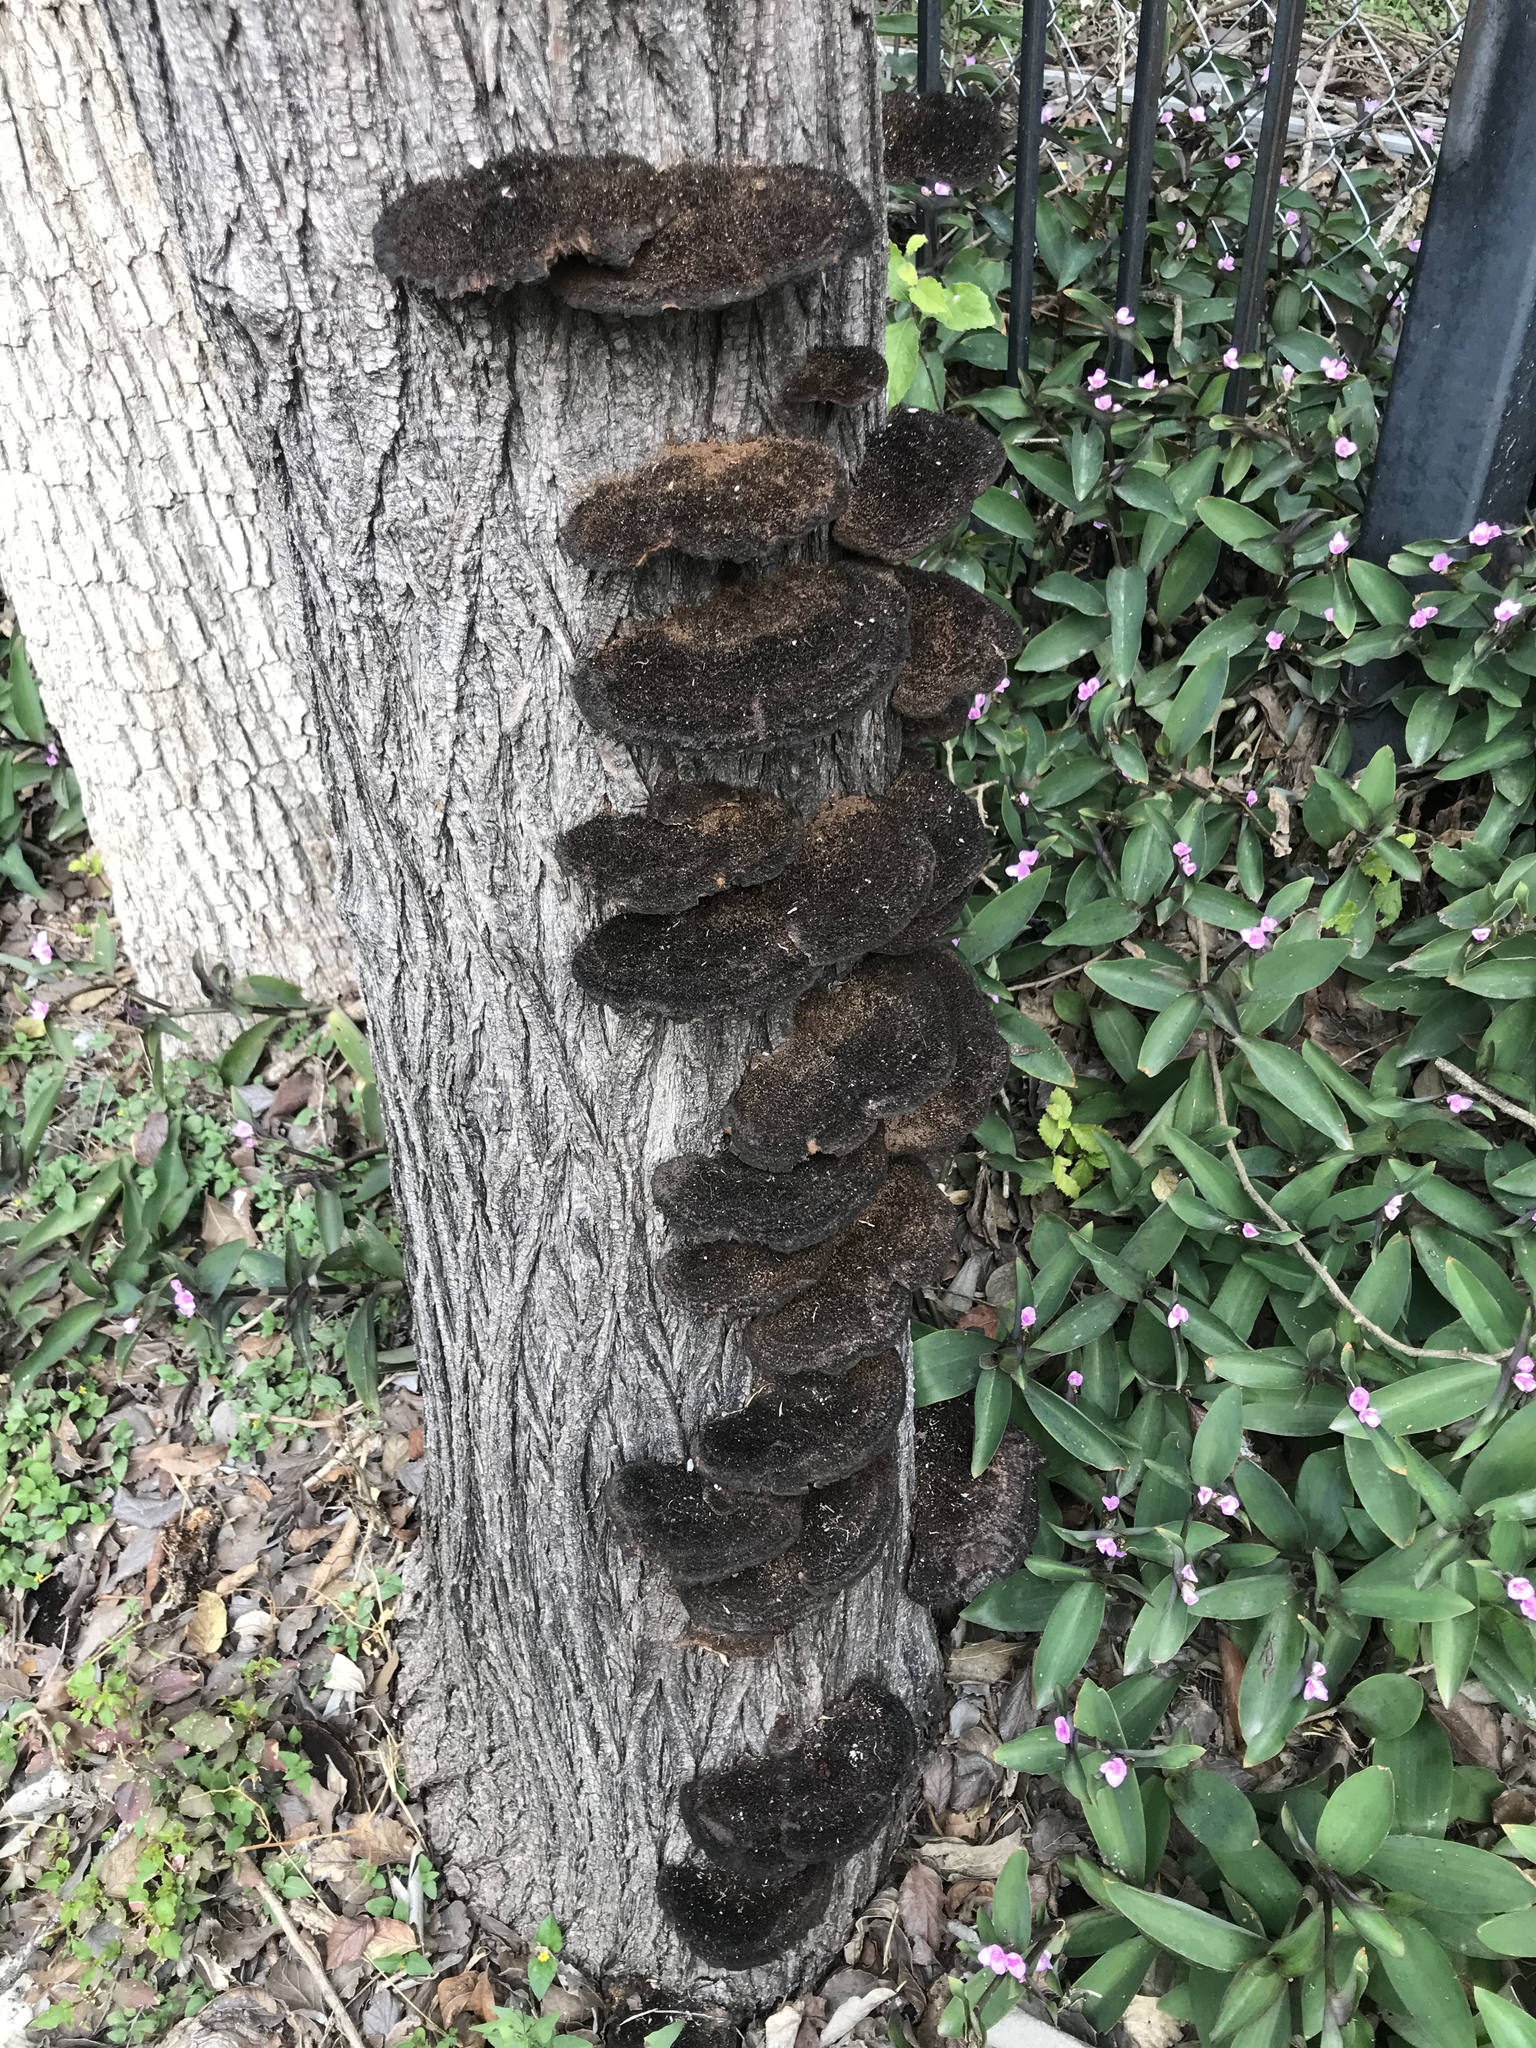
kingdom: Fungi
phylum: Basidiomycota
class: Agaricomycetes
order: Polyporales
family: Cerrenaceae
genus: Cerrena
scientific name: Cerrena hydnoides
